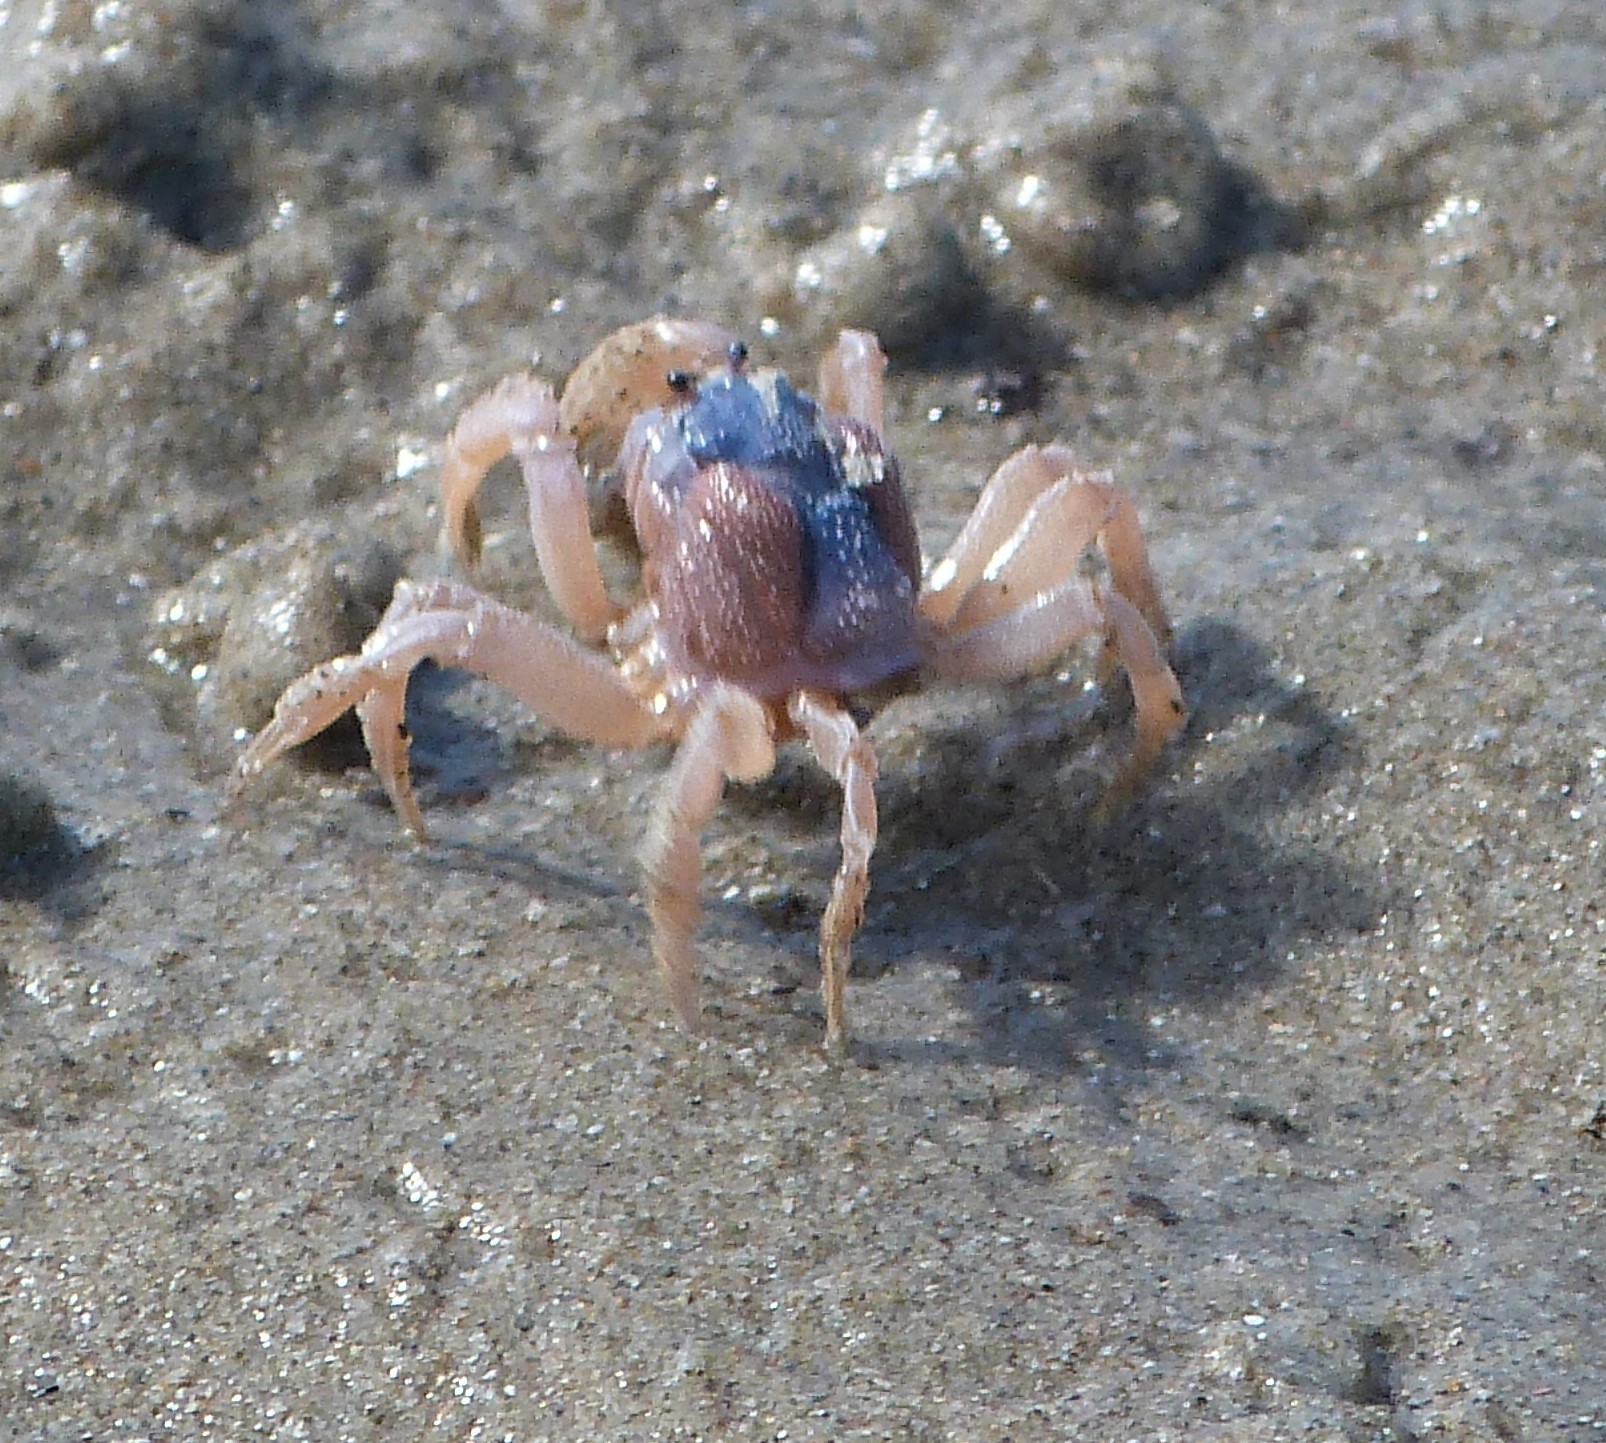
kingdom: Animalia
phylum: Arthropoda
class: Malacostraca
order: Decapoda
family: Mictyridae
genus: Mictyris
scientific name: Mictyris platycheles
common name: Dark blue soldier crab
